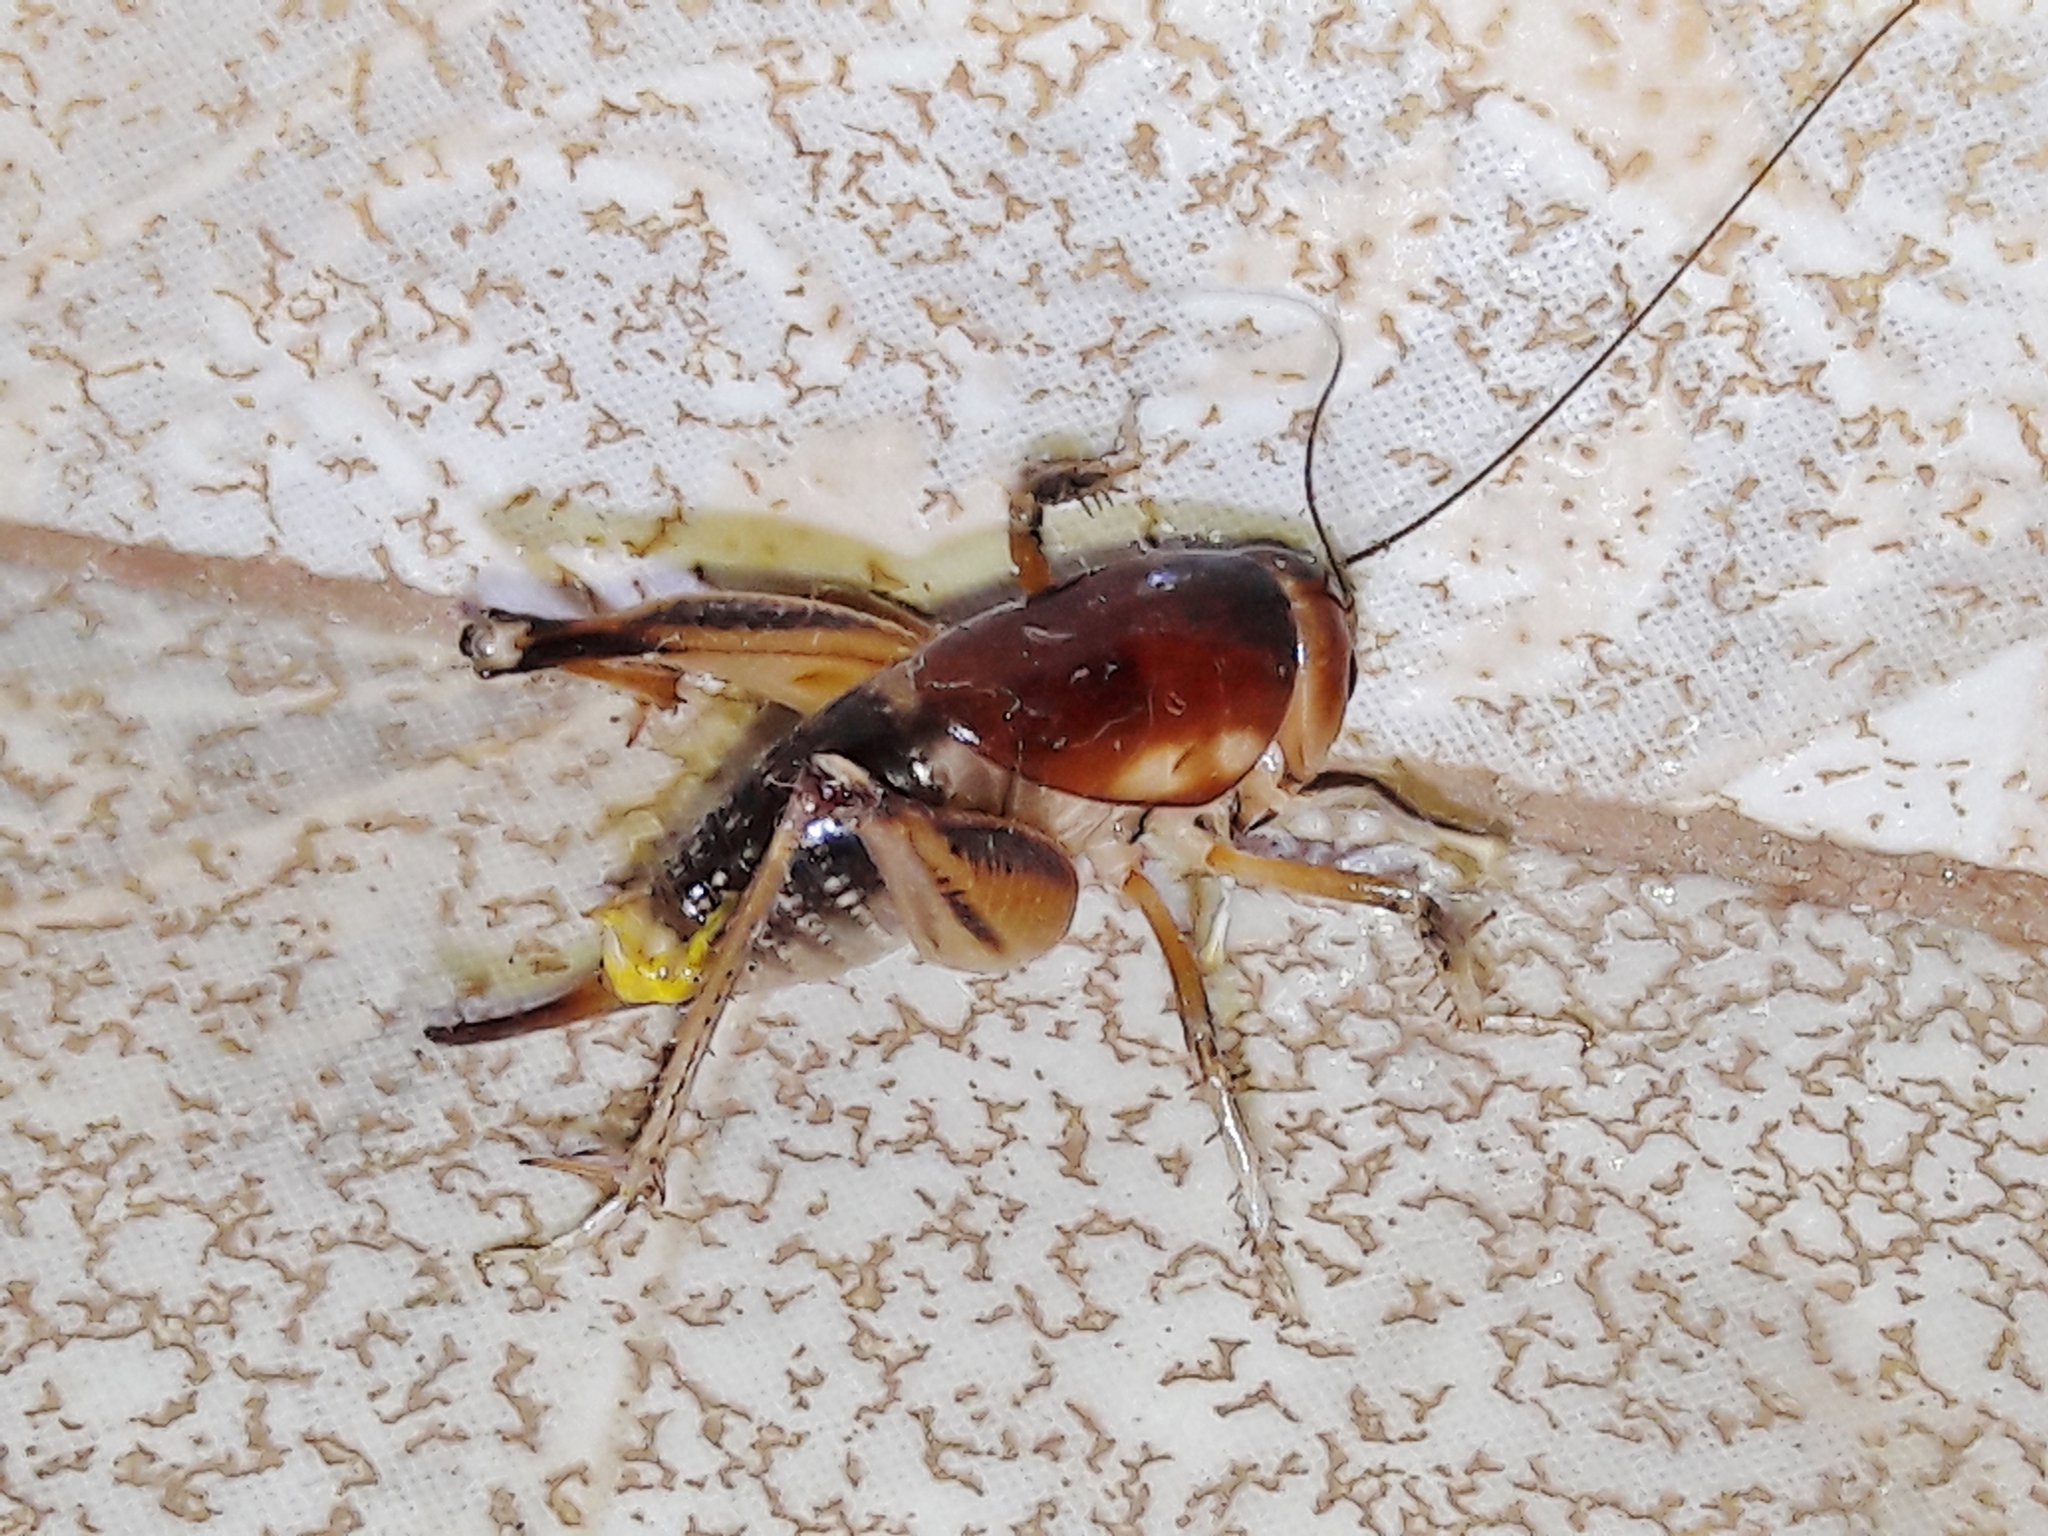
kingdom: Animalia
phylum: Arthropoda
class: Insecta
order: Orthoptera
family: Anostostomatidae
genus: Apotetamenus
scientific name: Apotetamenus clipeatus
